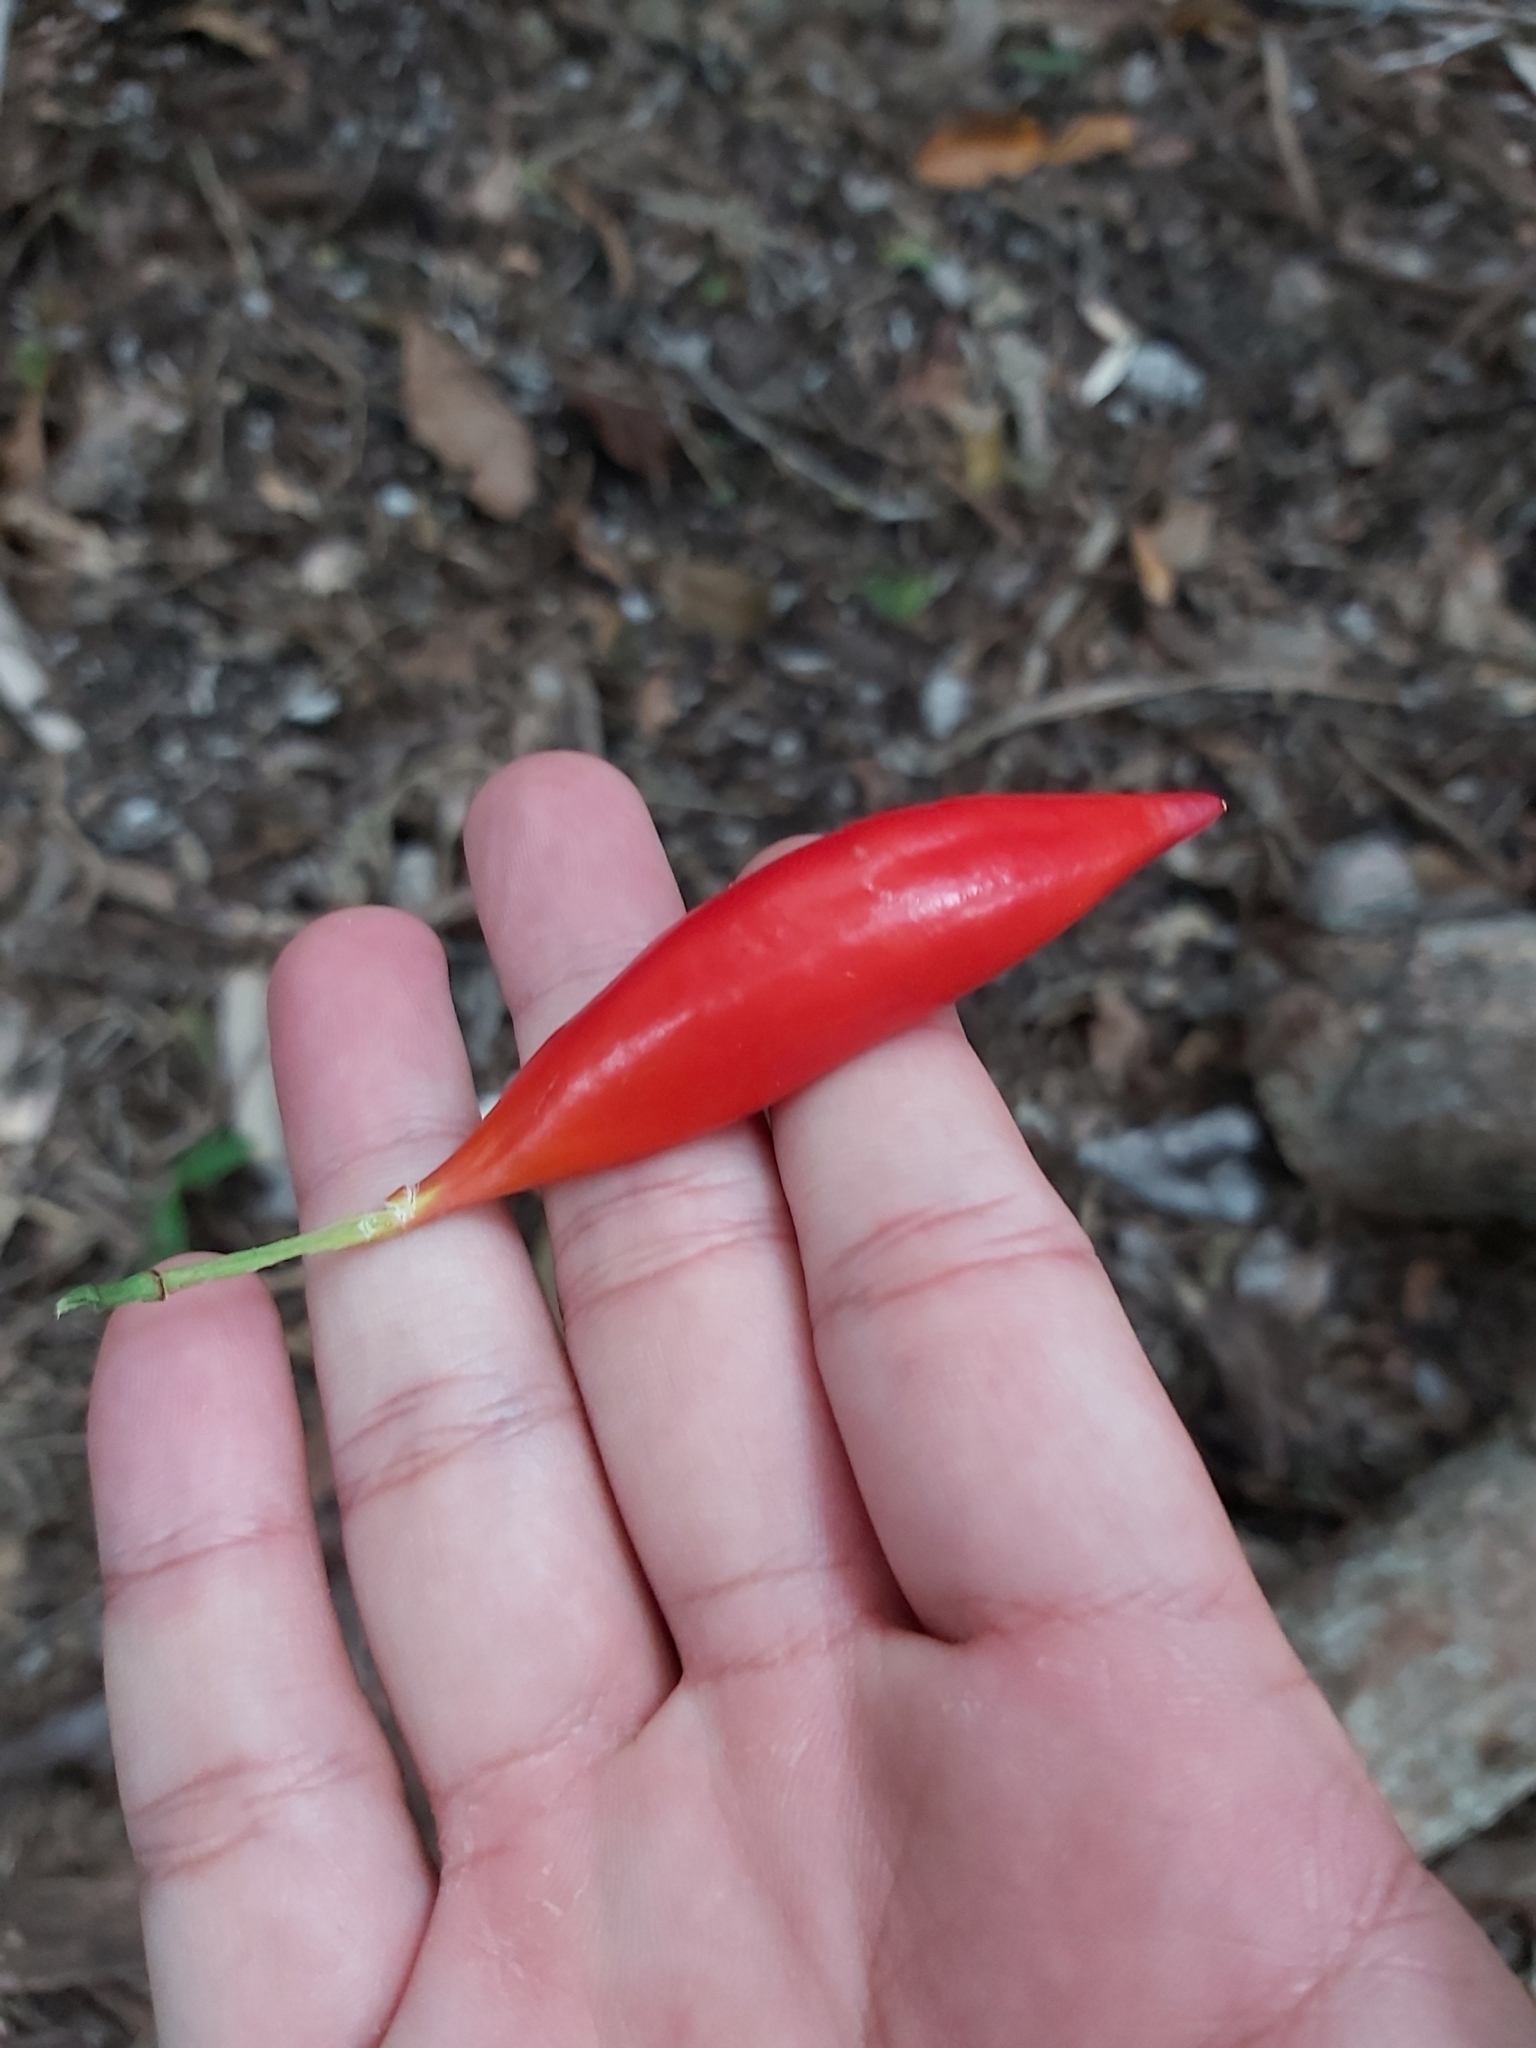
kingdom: Plantae
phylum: Tracheophyta
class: Magnoliopsida
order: Malpighiales
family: Passifloraceae
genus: Adenia
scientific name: Adenia heterophylla
